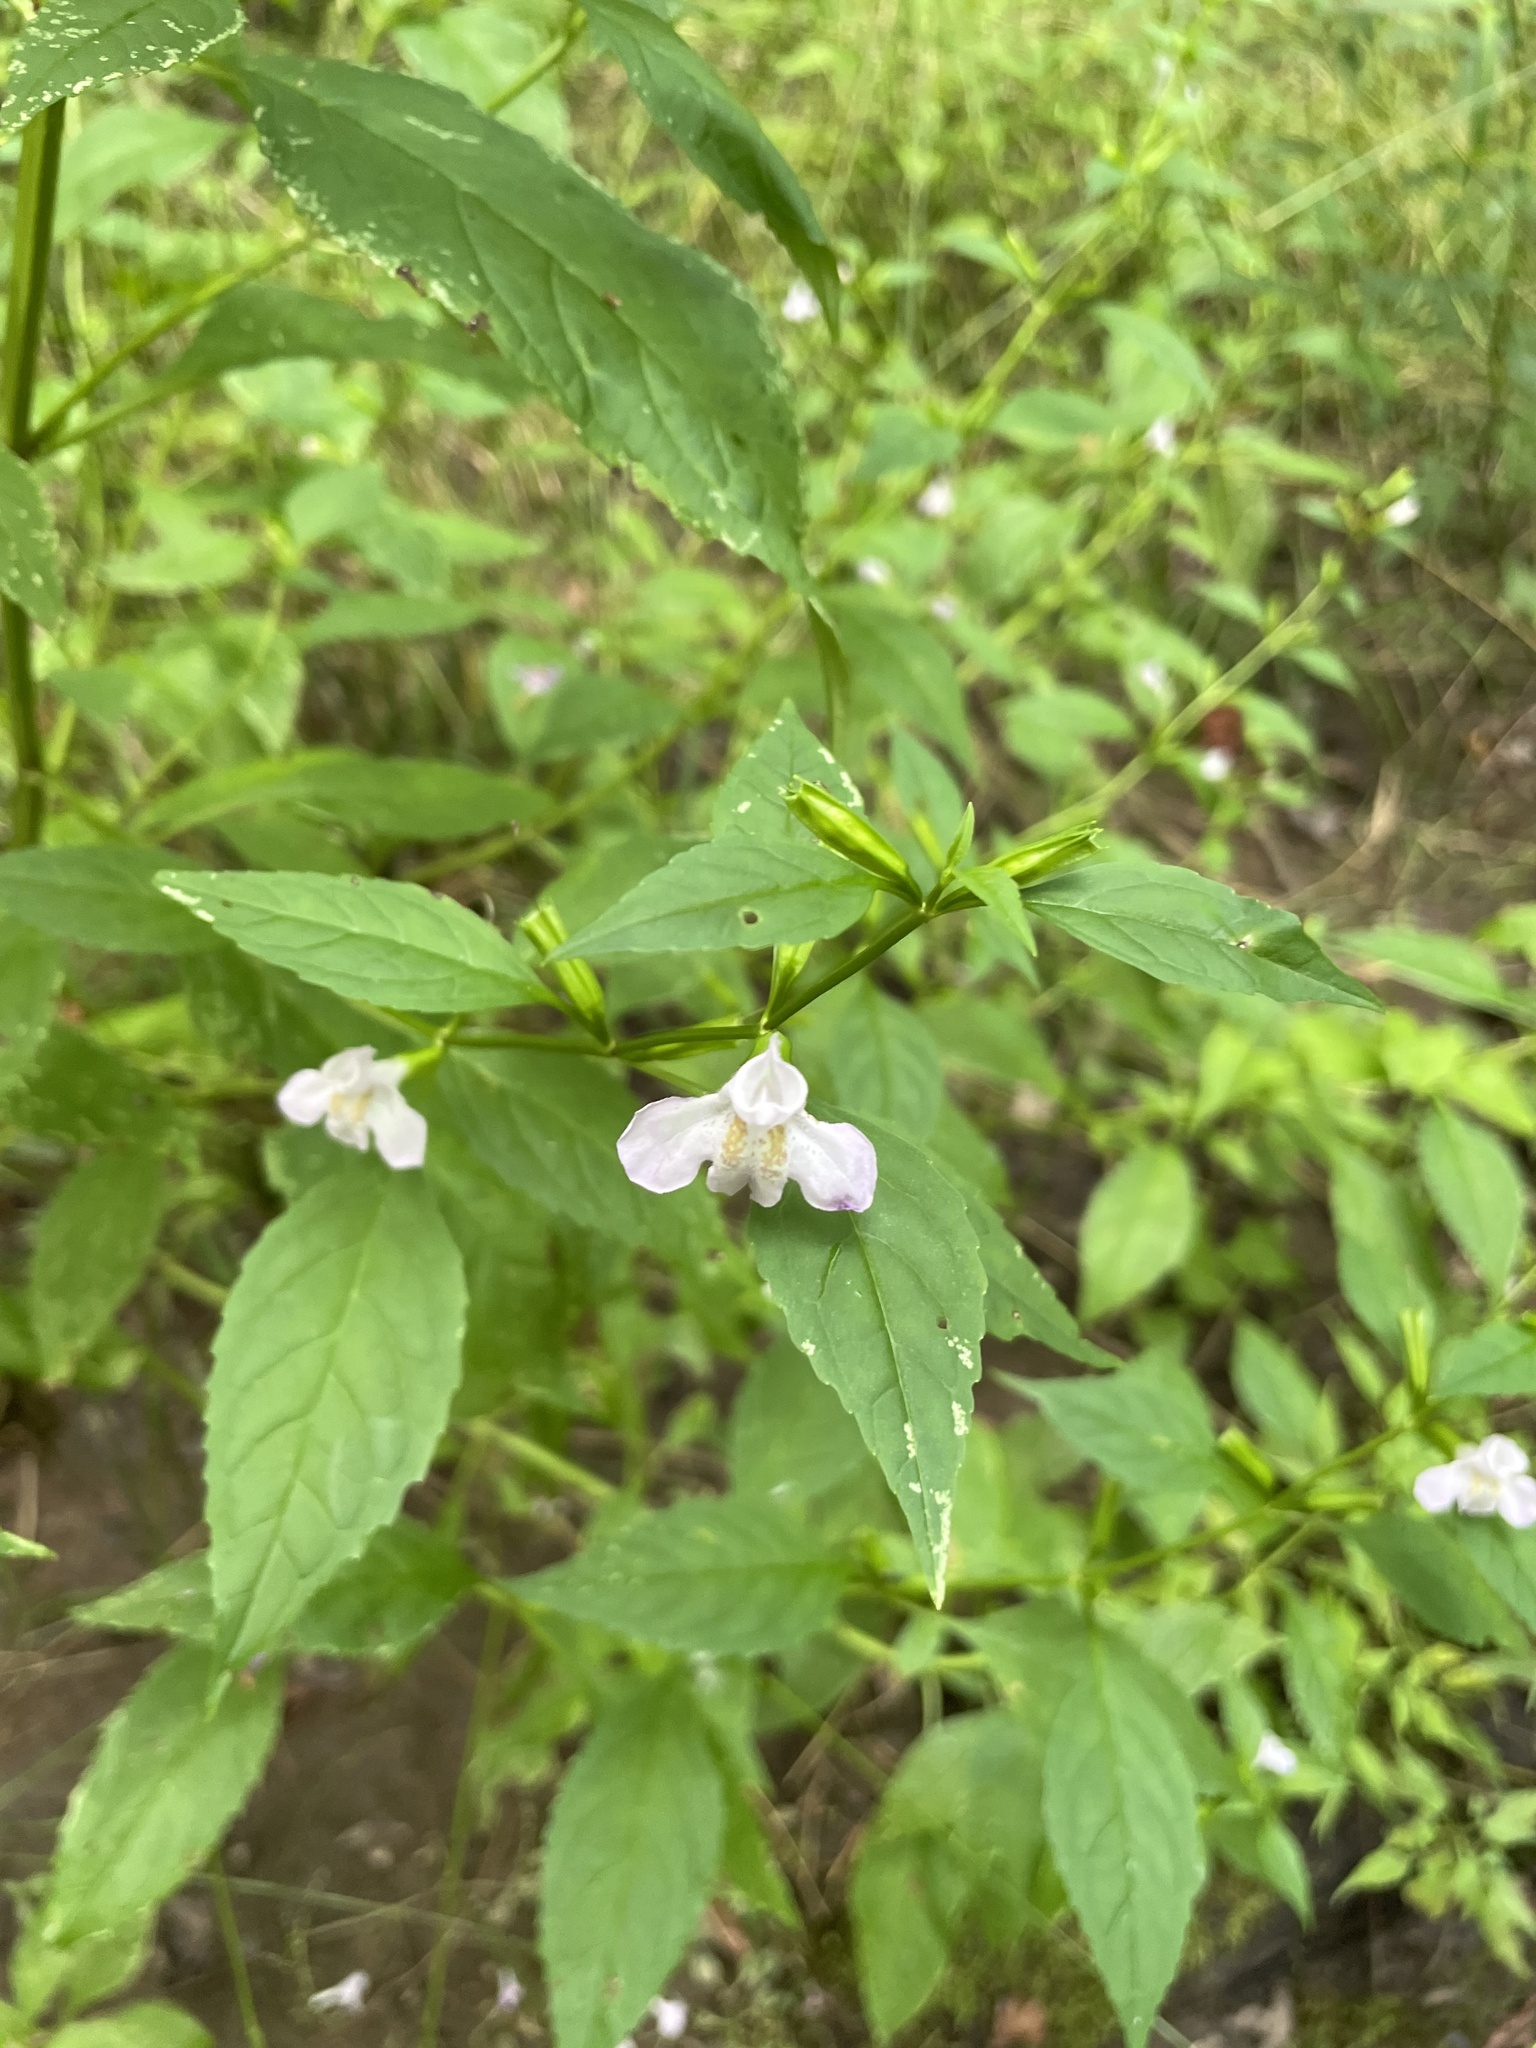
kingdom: Plantae
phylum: Tracheophyta
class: Magnoliopsida
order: Lamiales
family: Phrymaceae
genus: Mimulus
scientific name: Mimulus alatus
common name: Sharp-wing monkey-flower
